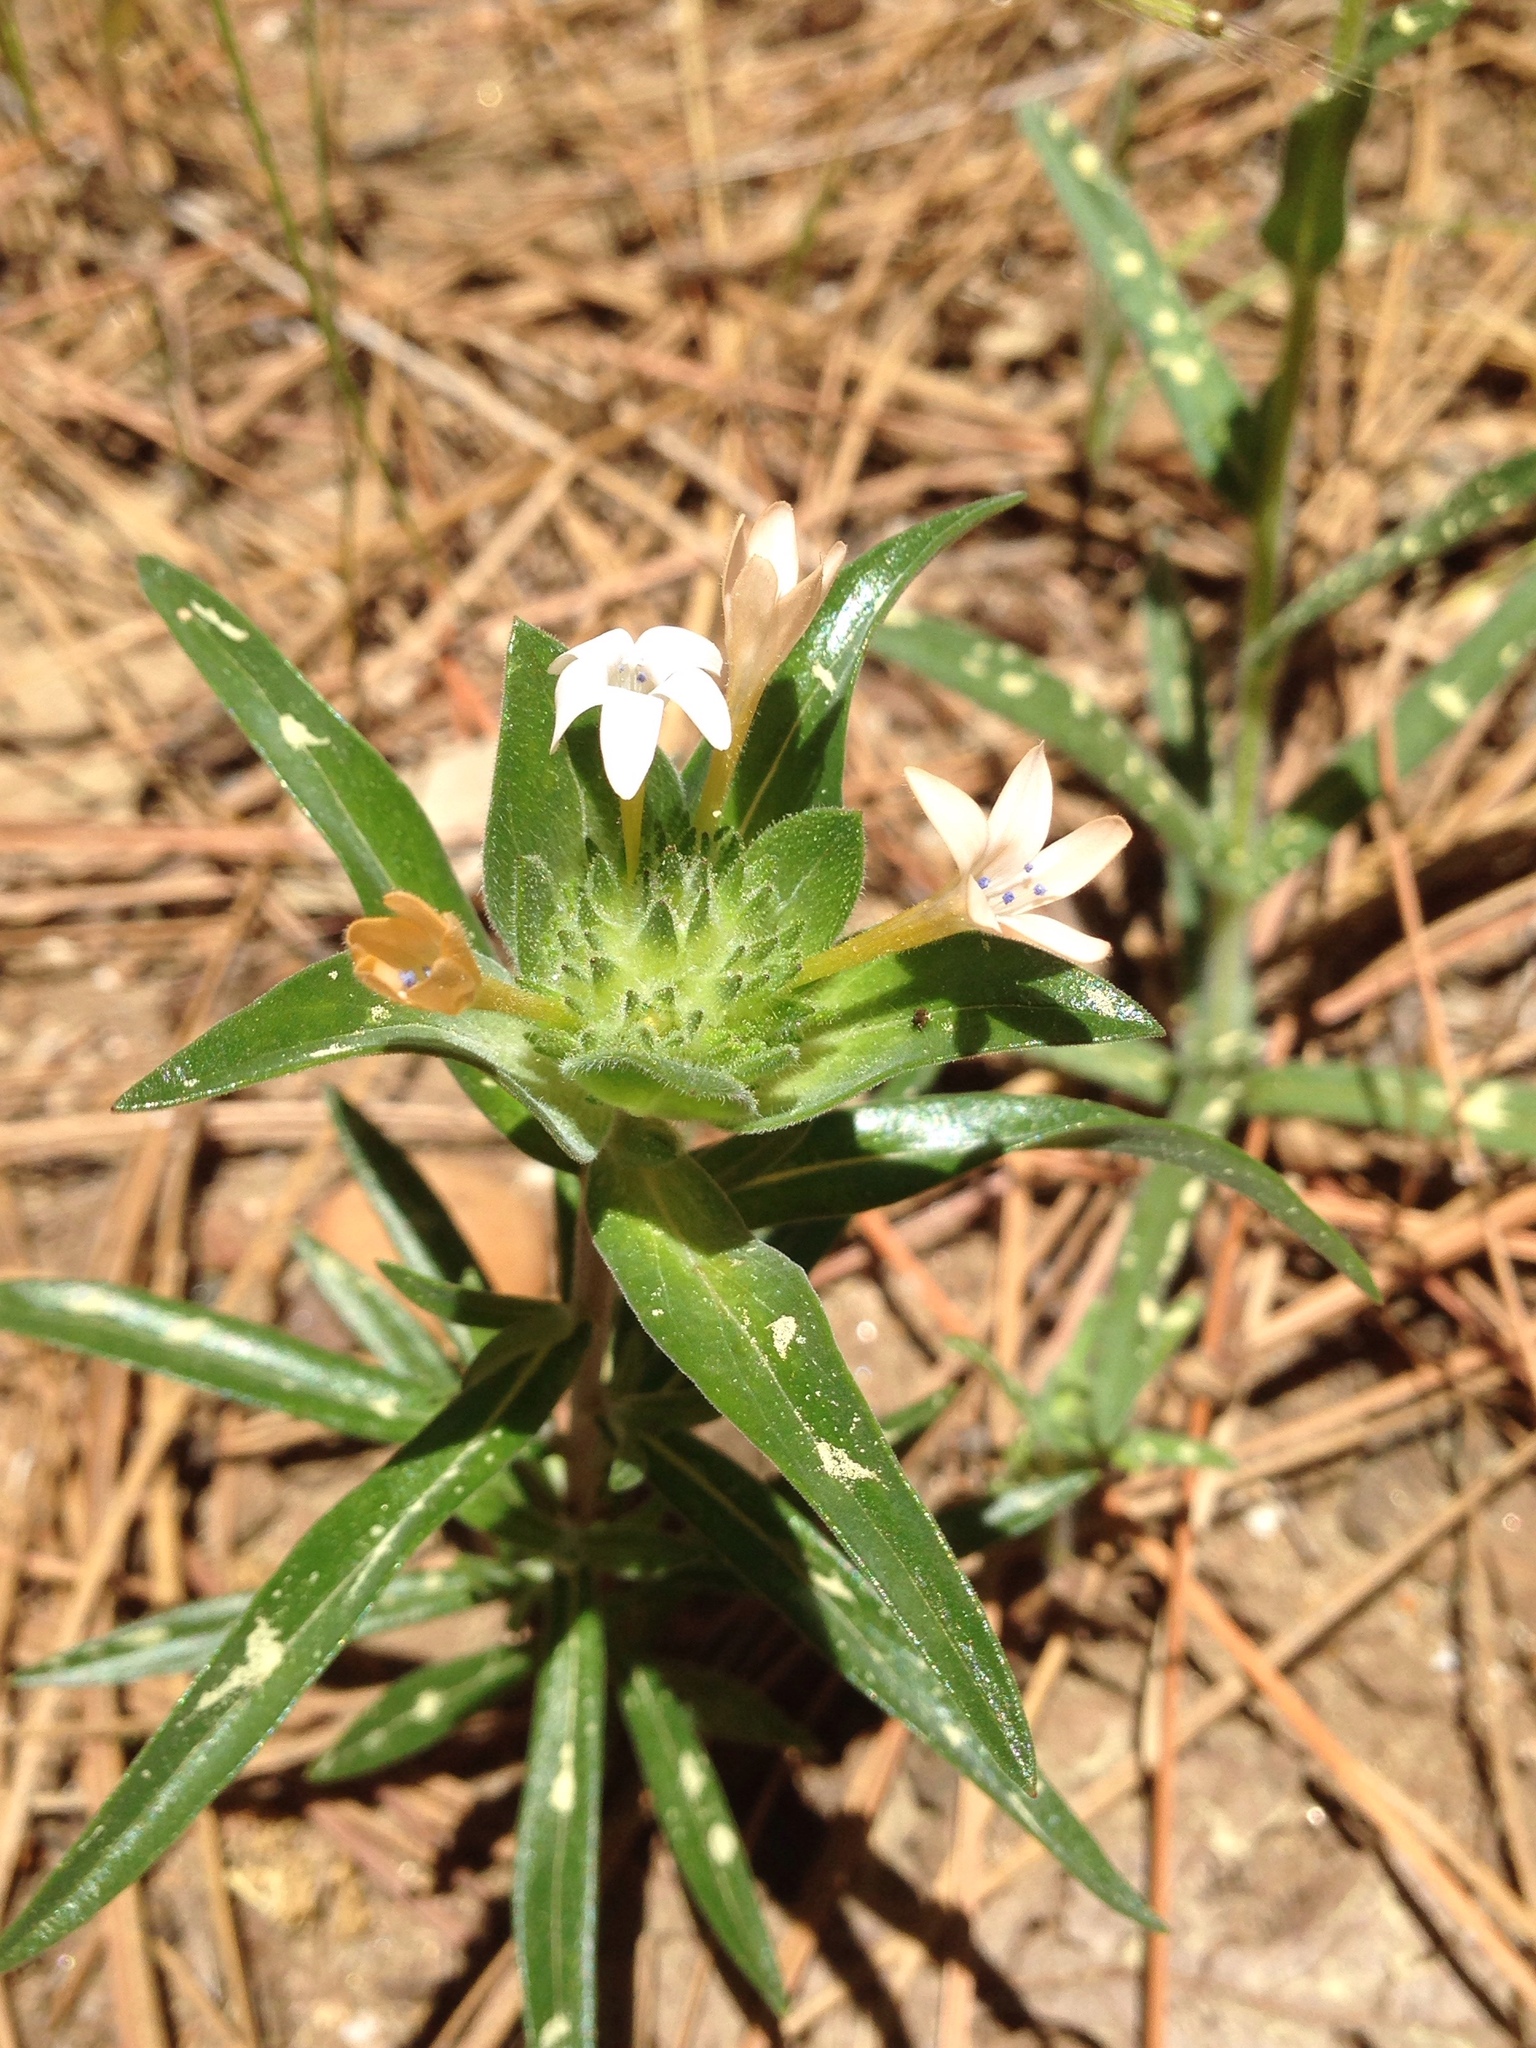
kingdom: Plantae
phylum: Tracheophyta
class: Magnoliopsida
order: Ericales
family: Polemoniaceae
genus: Collomia
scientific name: Collomia grandiflora
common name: California strawflower
